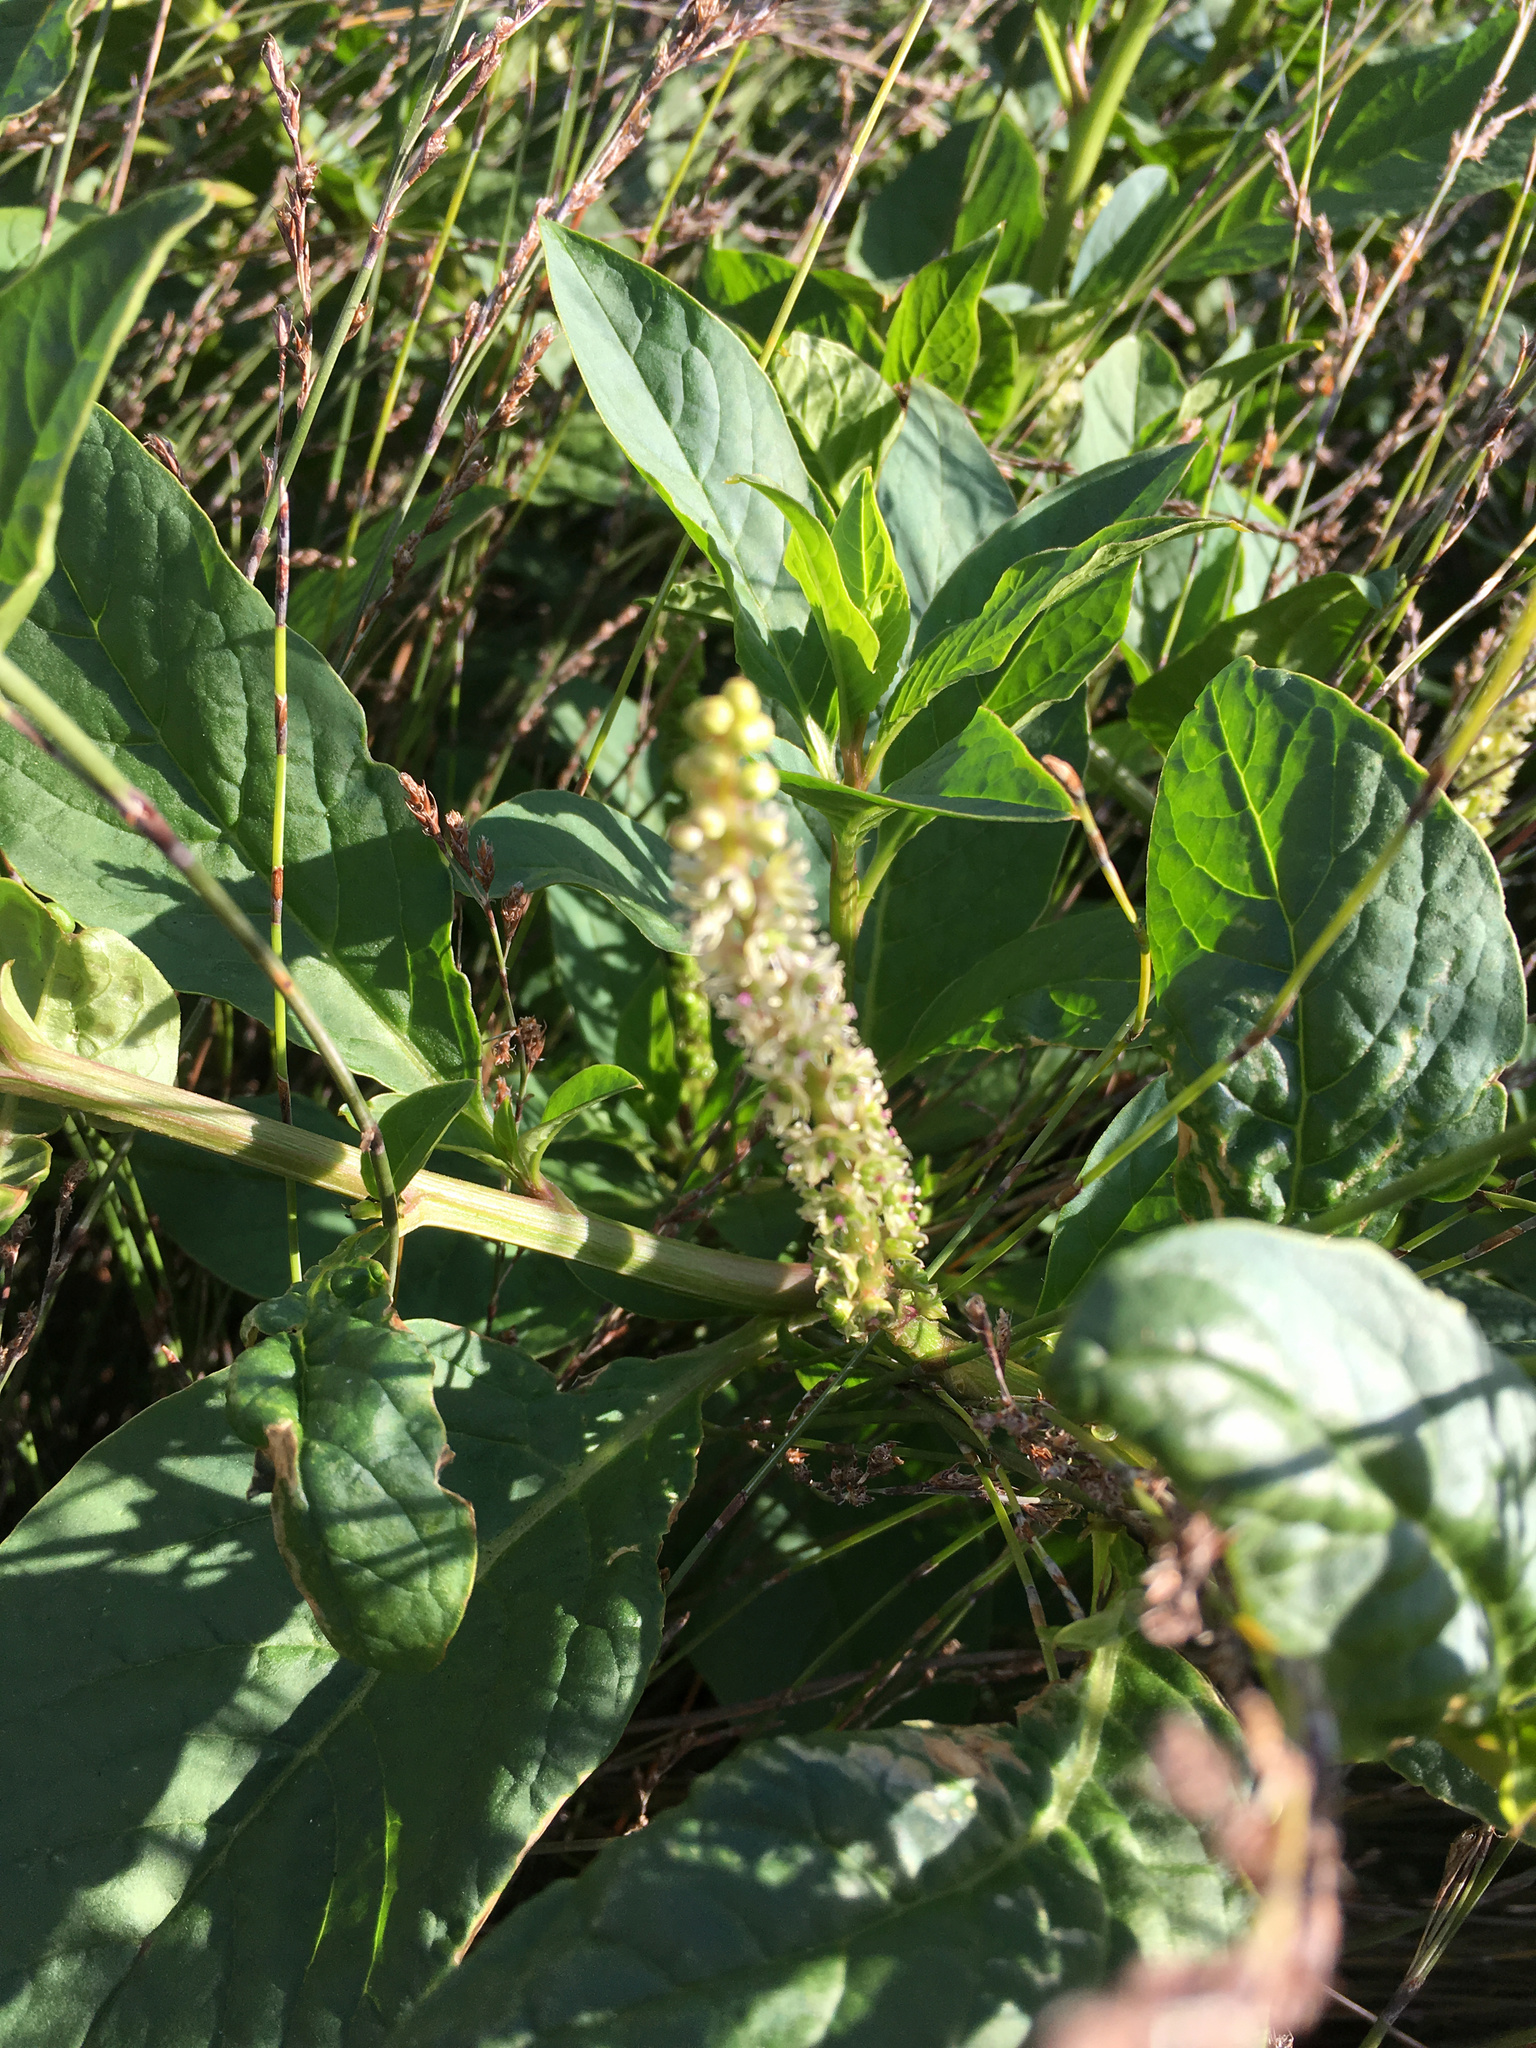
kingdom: Plantae
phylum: Tracheophyta
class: Magnoliopsida
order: Caryophyllales
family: Phytolaccaceae
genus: Phytolacca
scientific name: Phytolacca icosandra
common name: Button pokeweed
